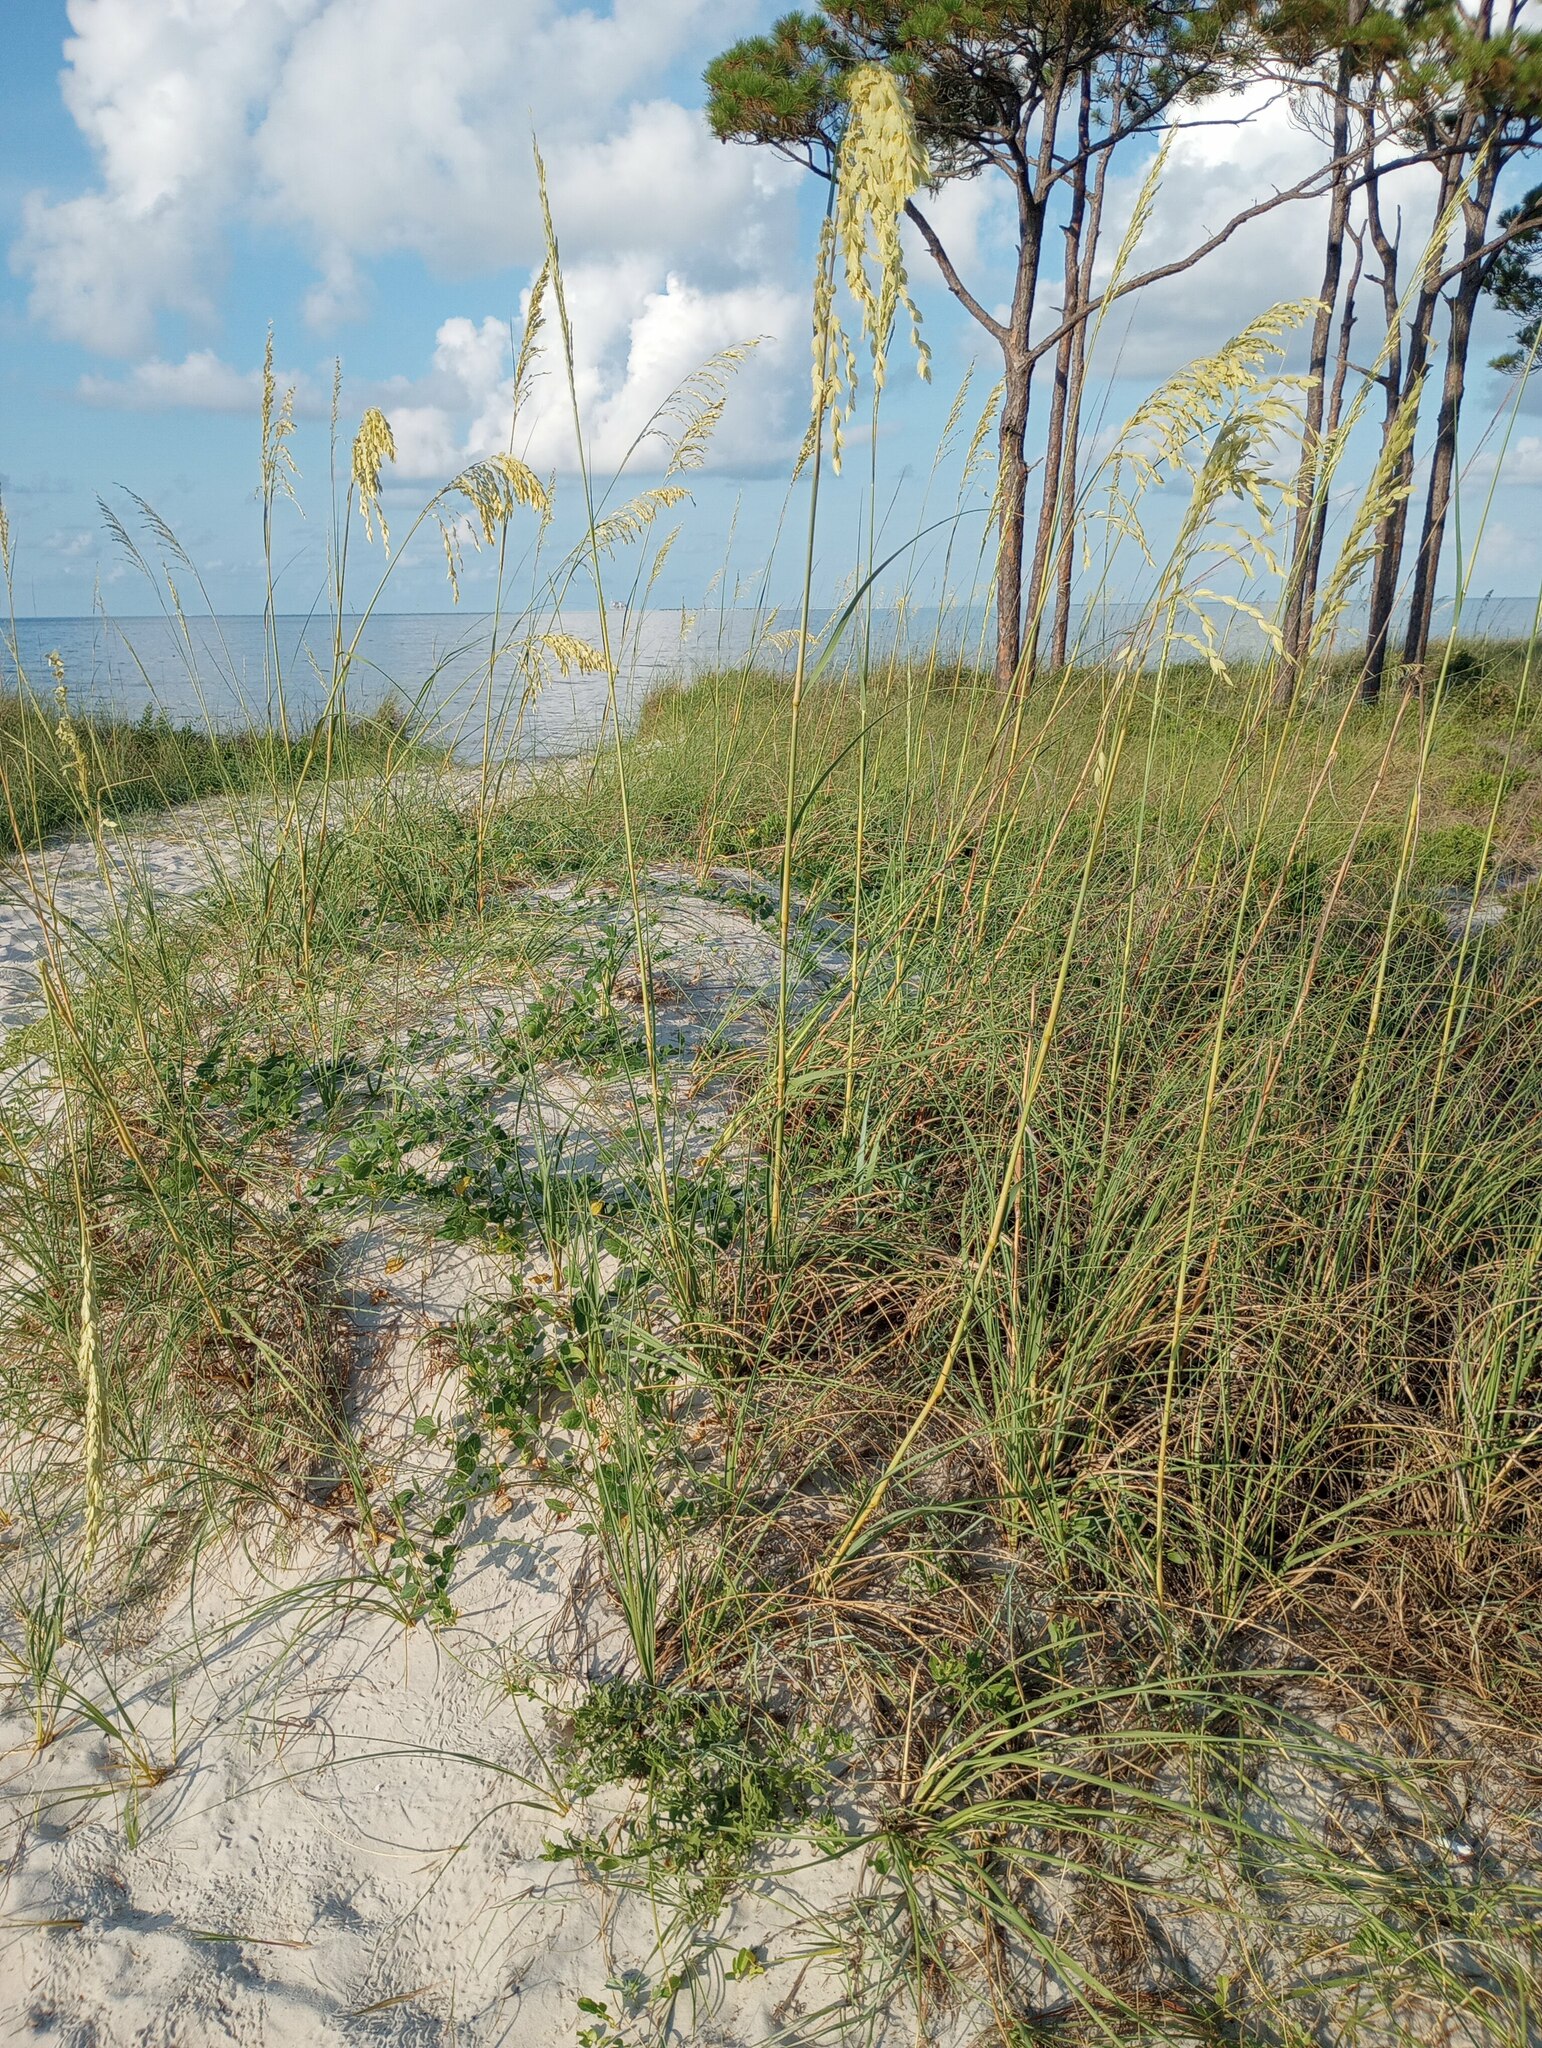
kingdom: Plantae
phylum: Tracheophyta
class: Liliopsida
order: Poales
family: Poaceae
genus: Uniola
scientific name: Uniola paniculata
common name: Seaside-oats
